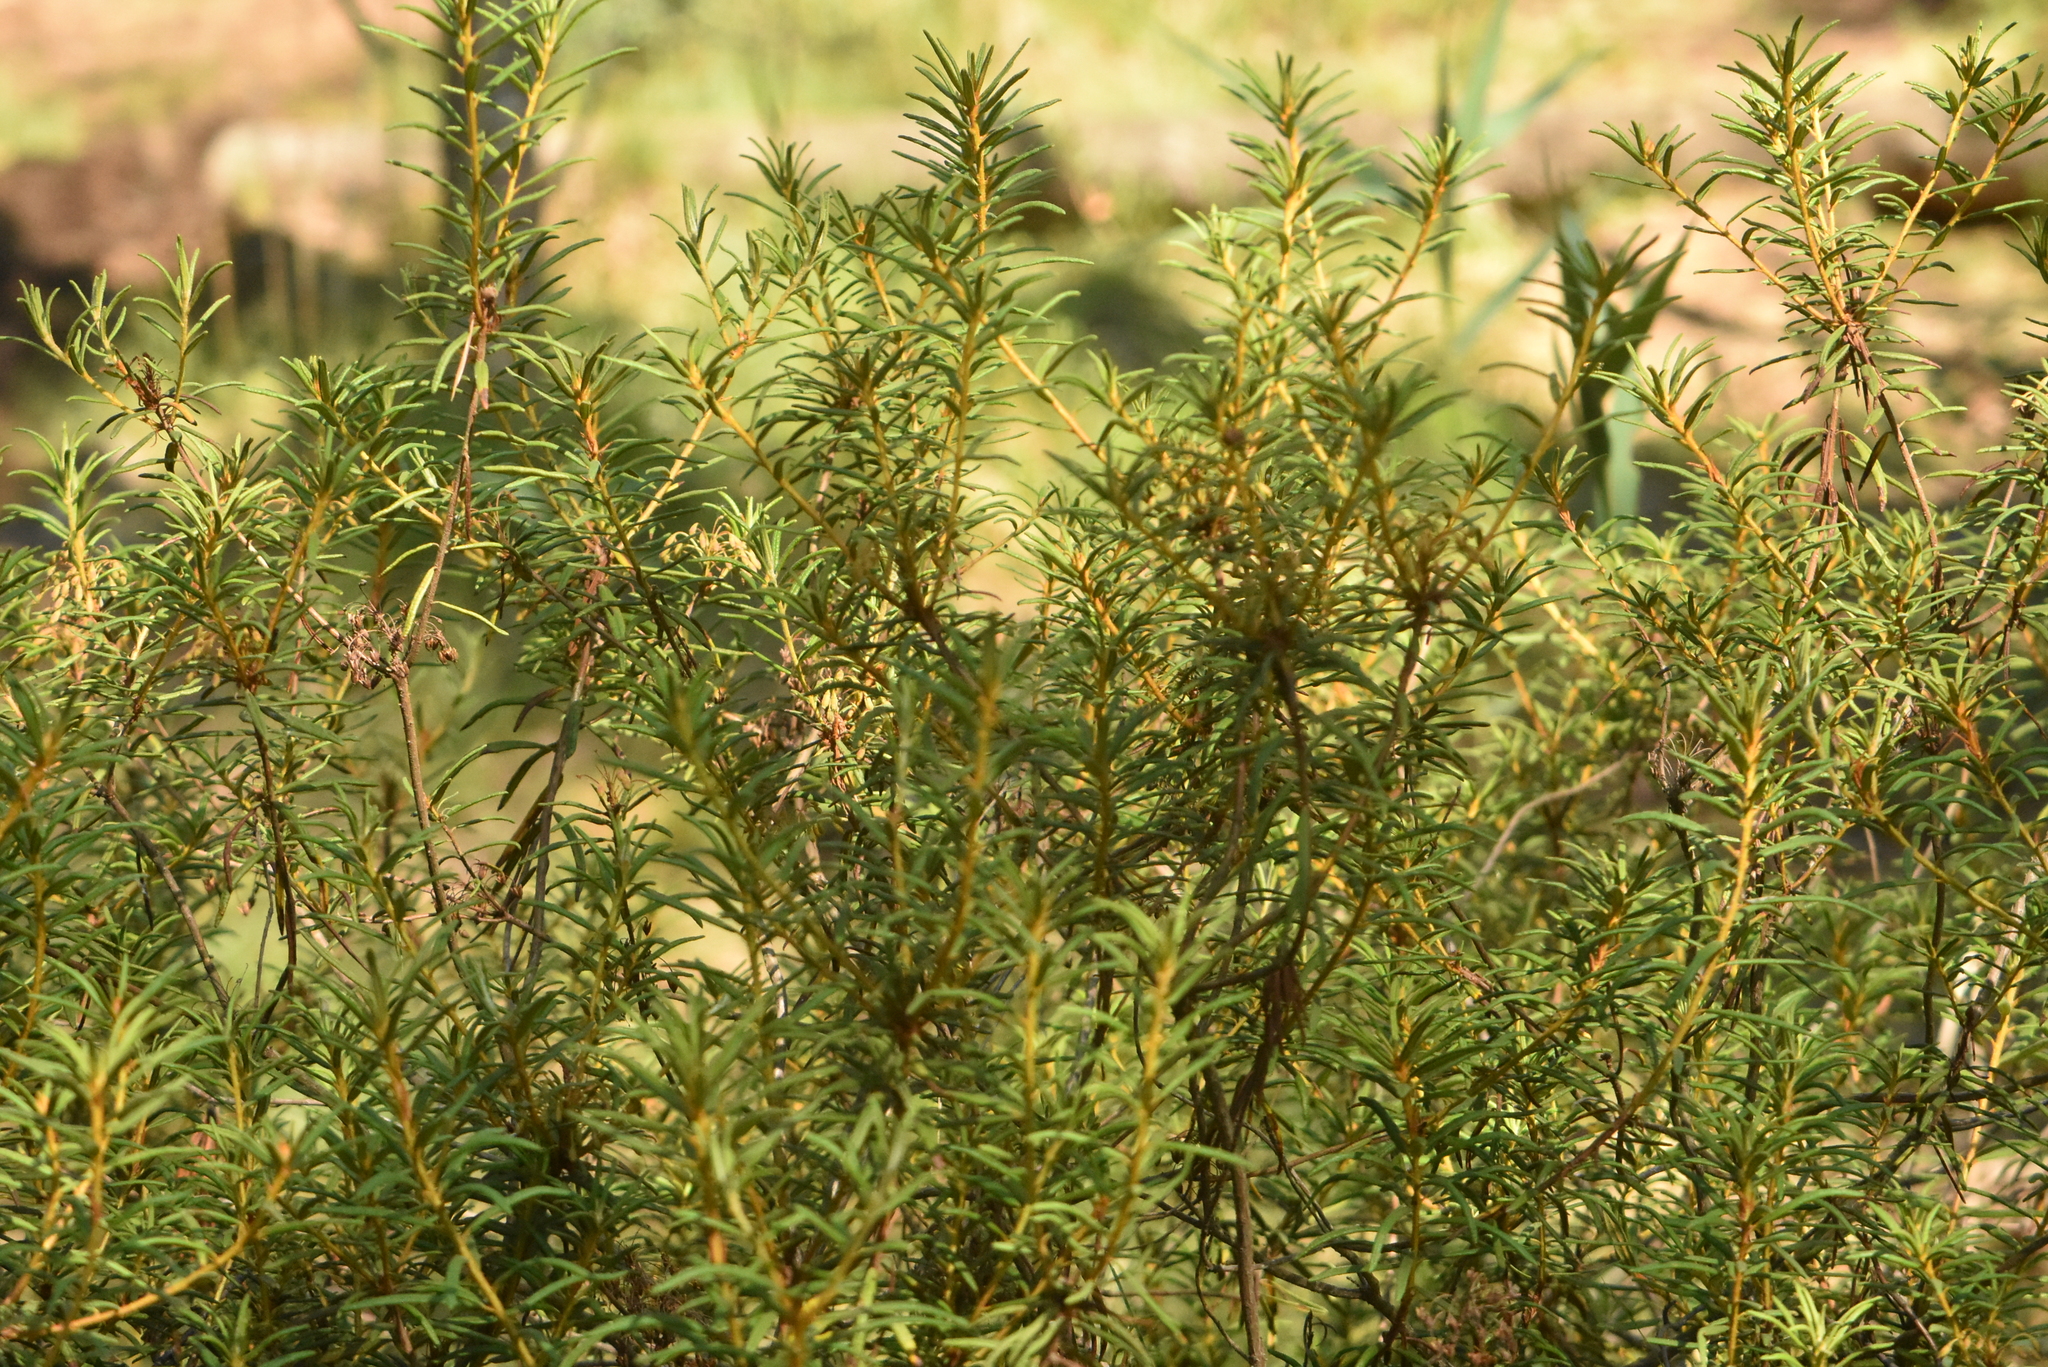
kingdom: Plantae
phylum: Tracheophyta
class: Magnoliopsida
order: Ericales
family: Ericaceae
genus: Rhododendron
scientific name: Rhododendron tomentosum
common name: Marsh labrador tea
